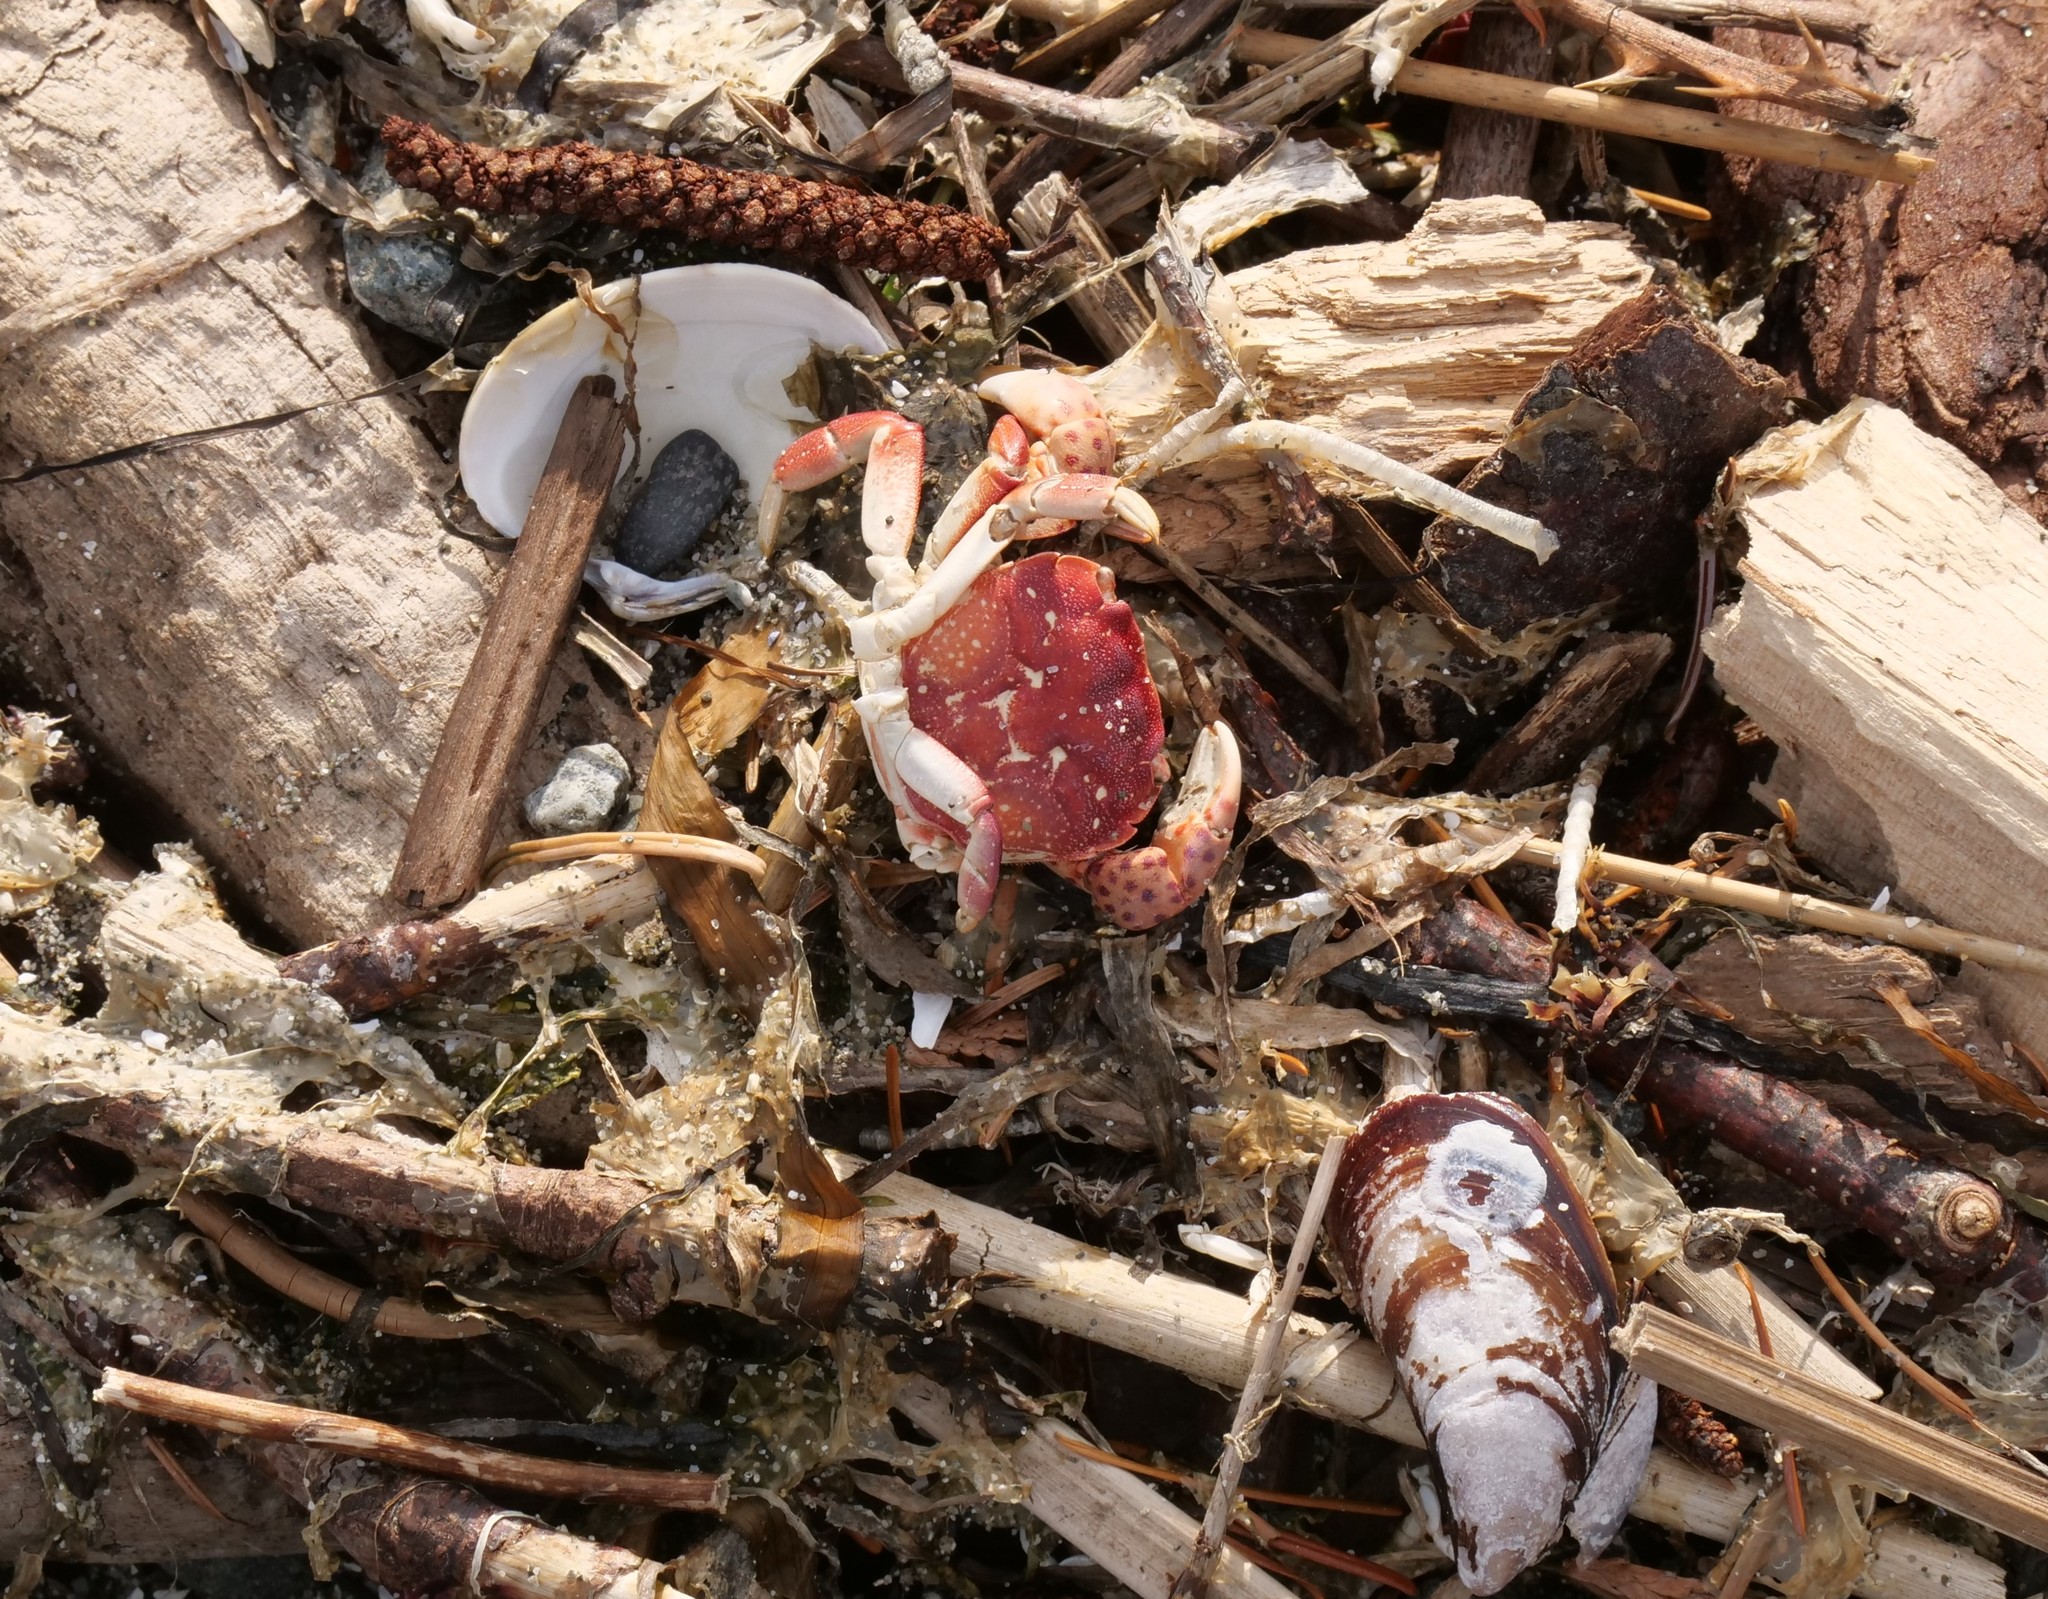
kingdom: Animalia
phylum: Arthropoda
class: Malacostraca
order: Decapoda
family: Varunidae
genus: Hemigrapsus
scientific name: Hemigrapsus nudus
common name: Purple shore crab
